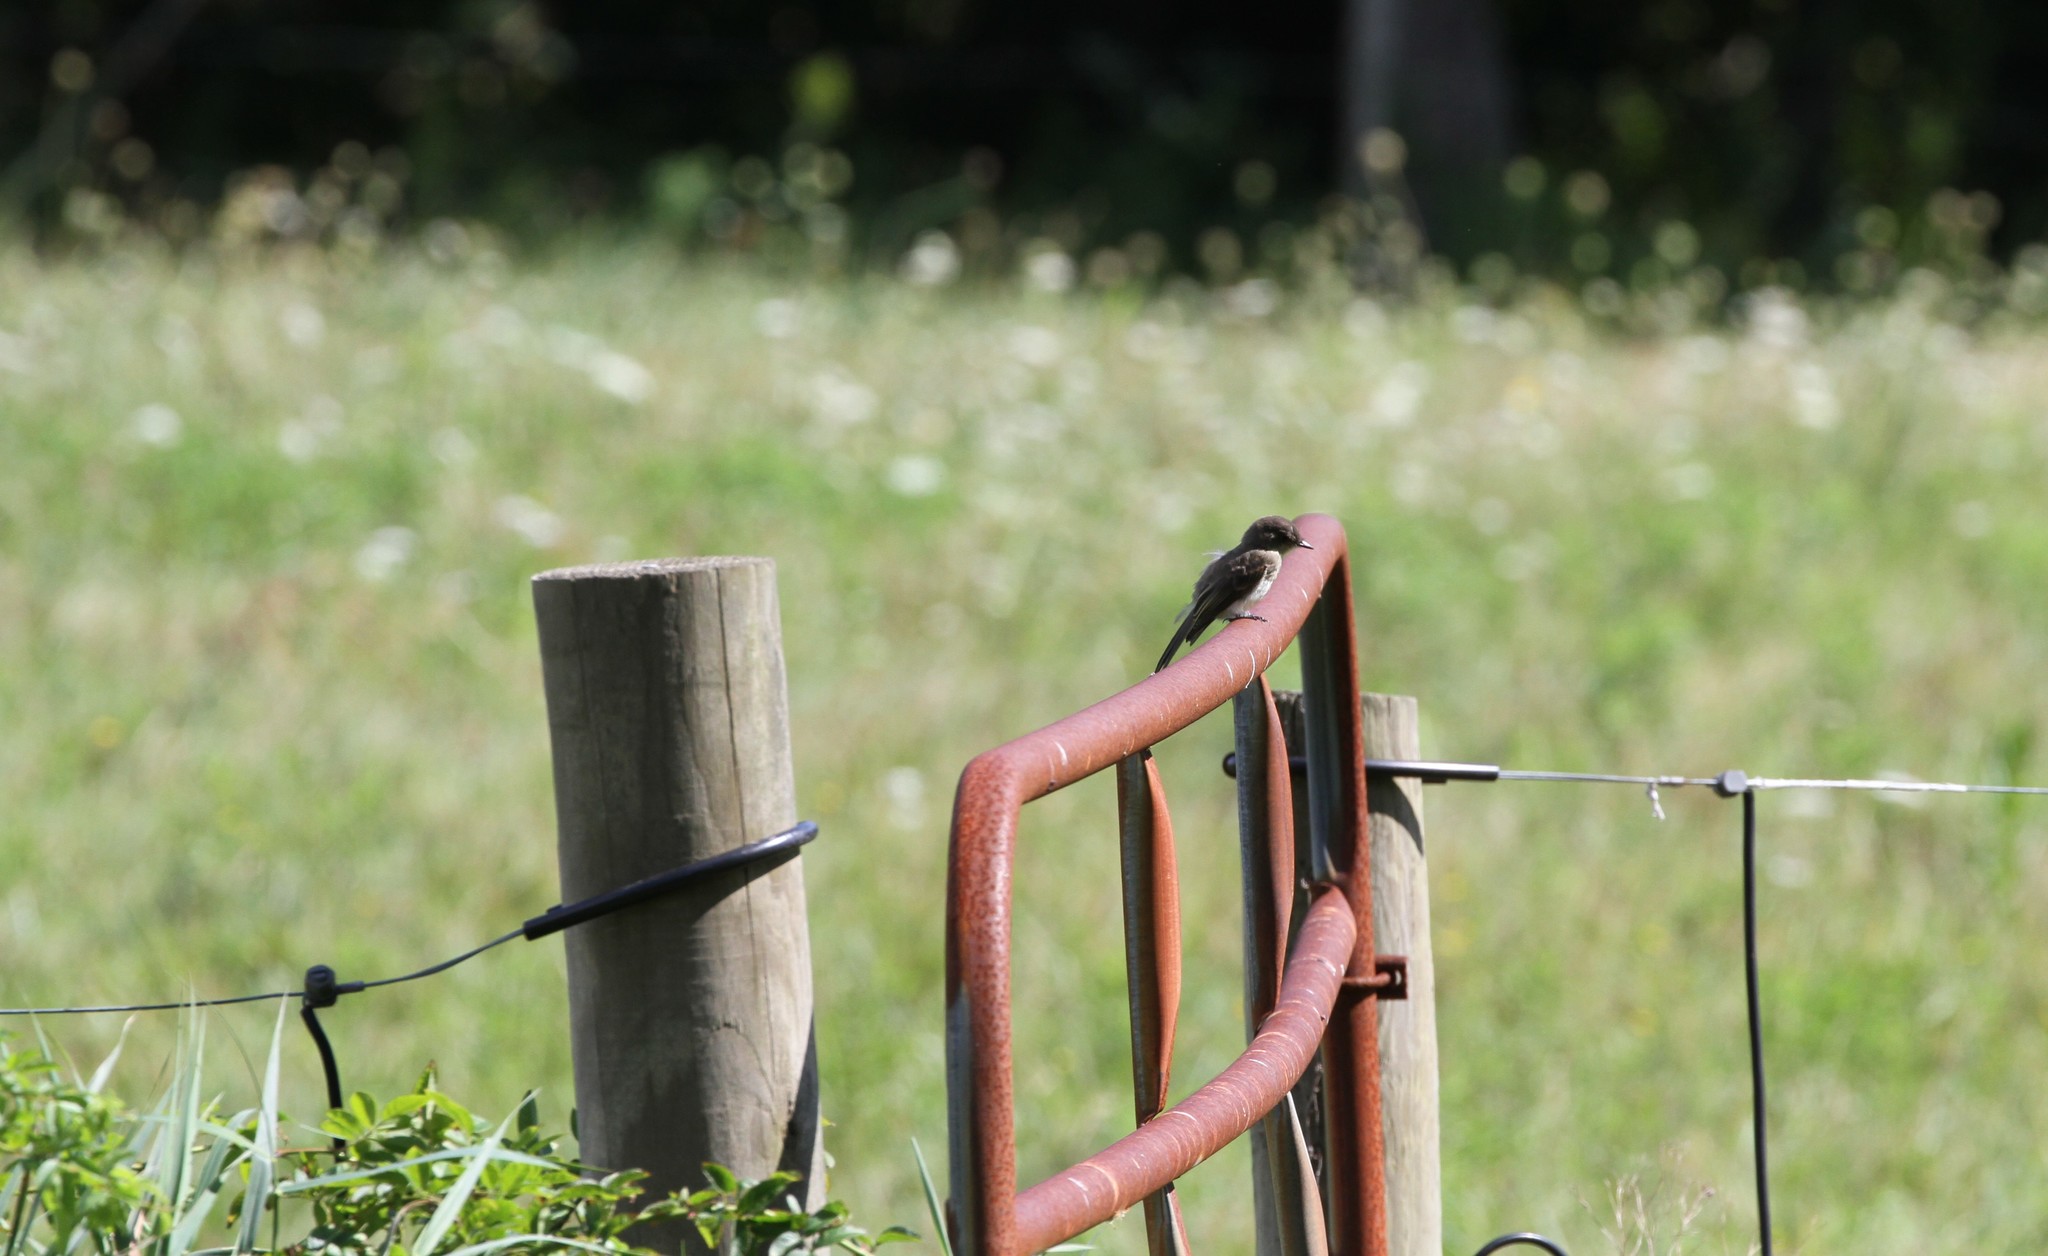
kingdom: Animalia
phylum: Chordata
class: Aves
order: Passeriformes
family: Tyrannidae
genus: Sayornis
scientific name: Sayornis phoebe
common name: Eastern phoebe
